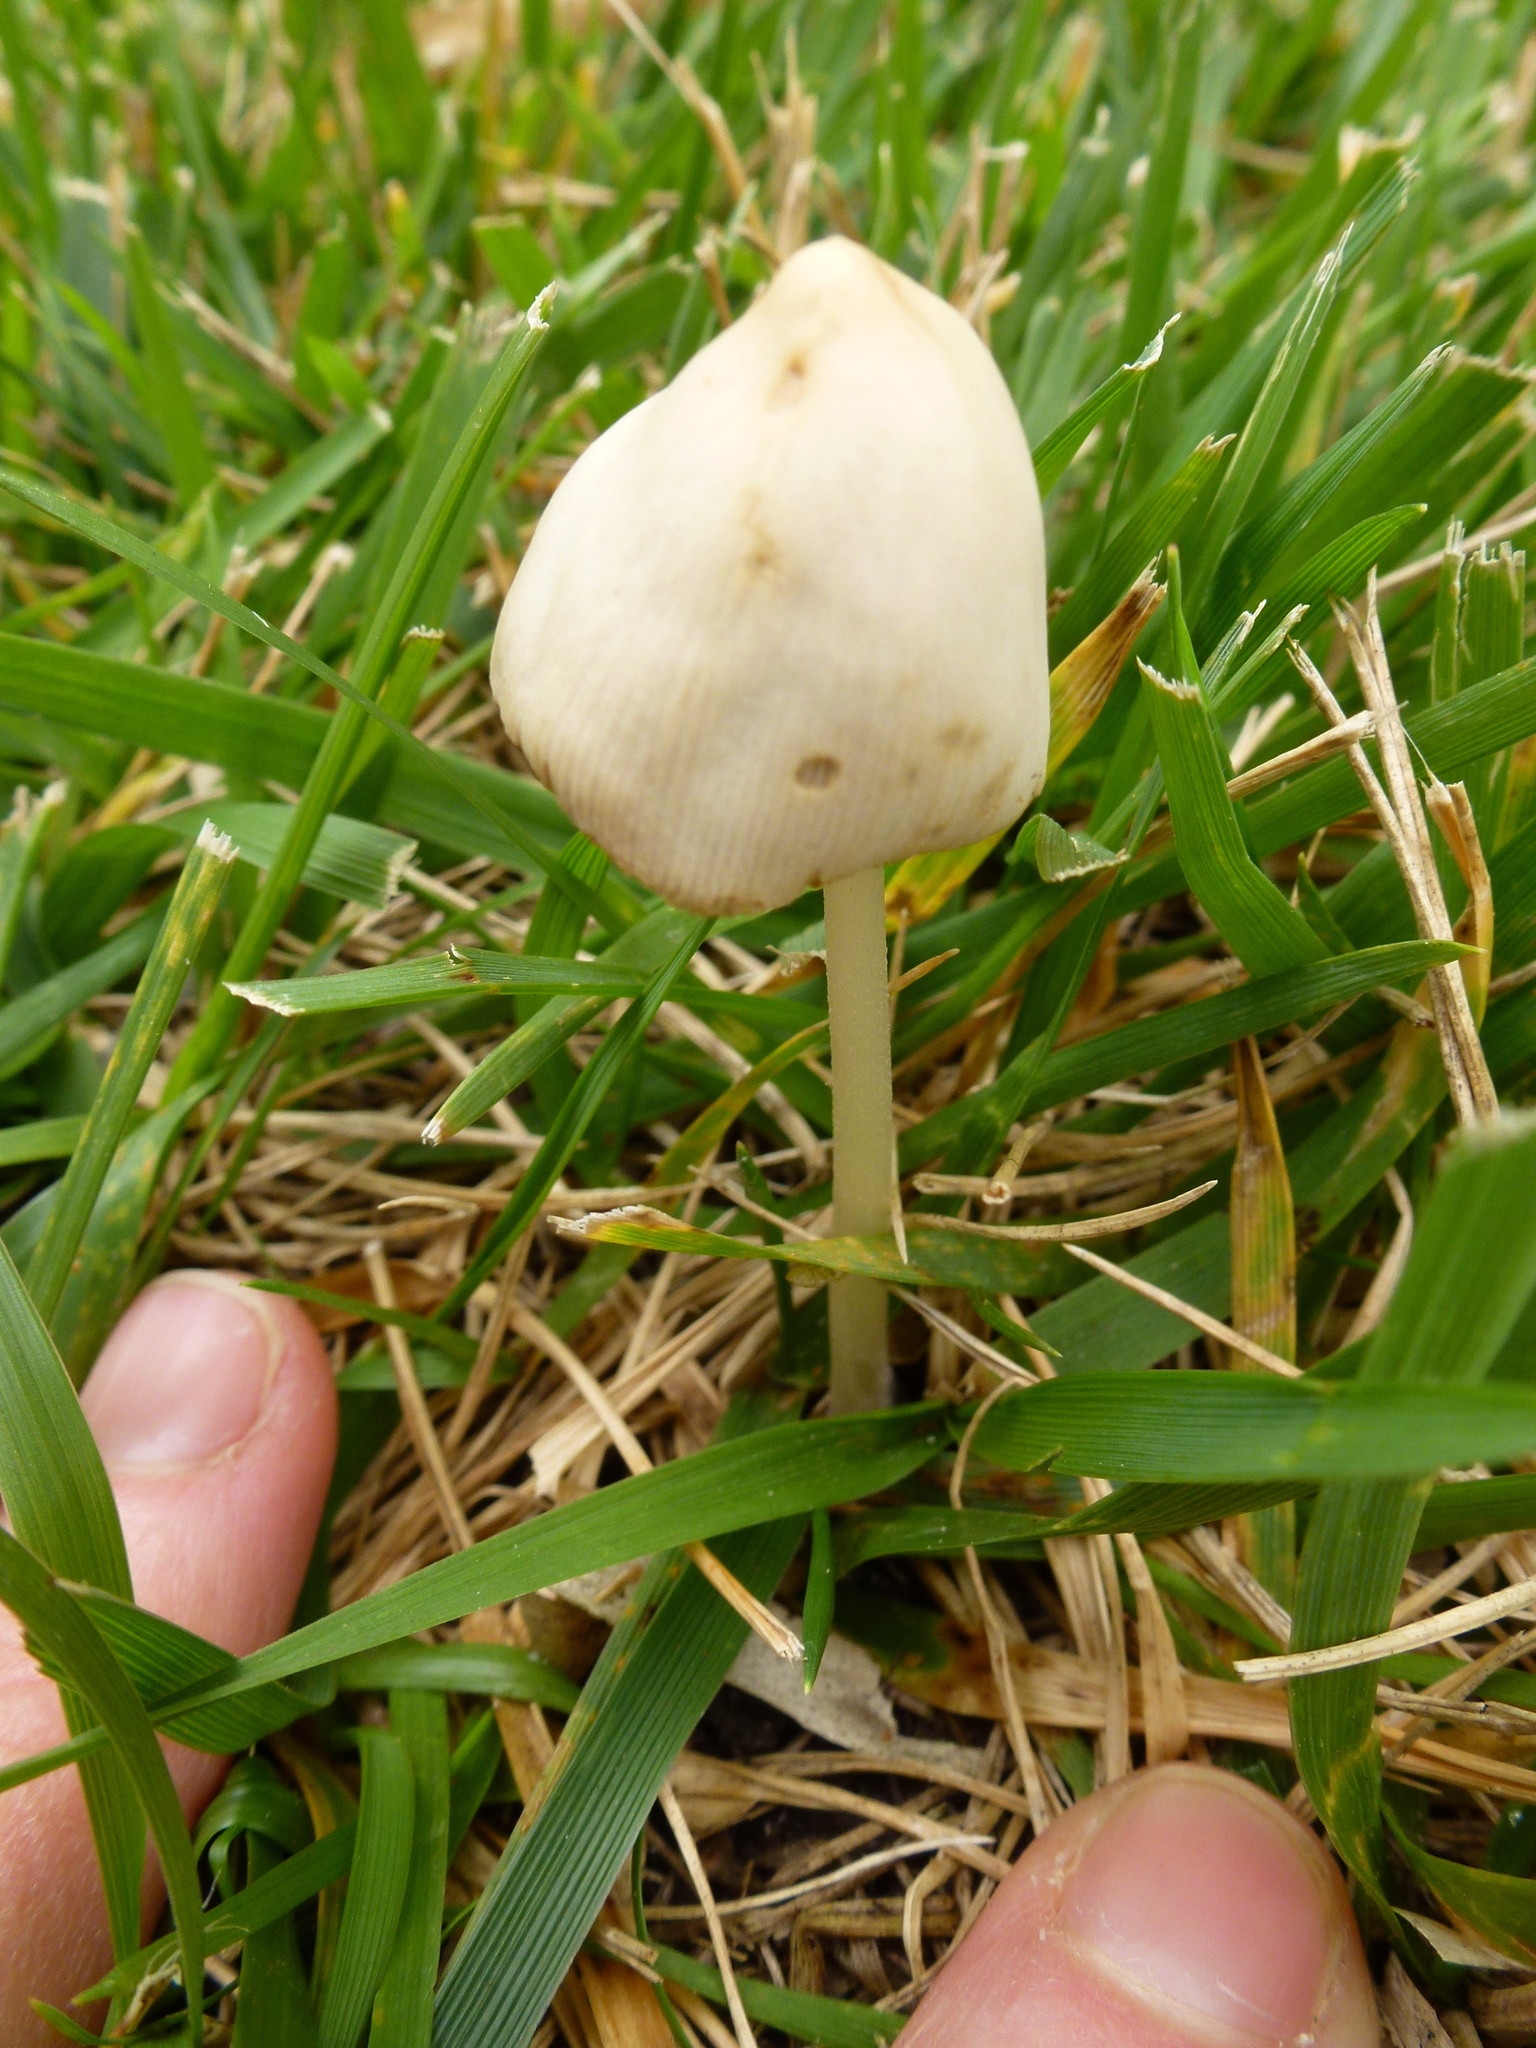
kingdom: Fungi
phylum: Basidiomycota
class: Agaricomycetes
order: Agaricales
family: Bolbitiaceae
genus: Conocybe
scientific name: Conocybe apala
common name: Milky conecap
